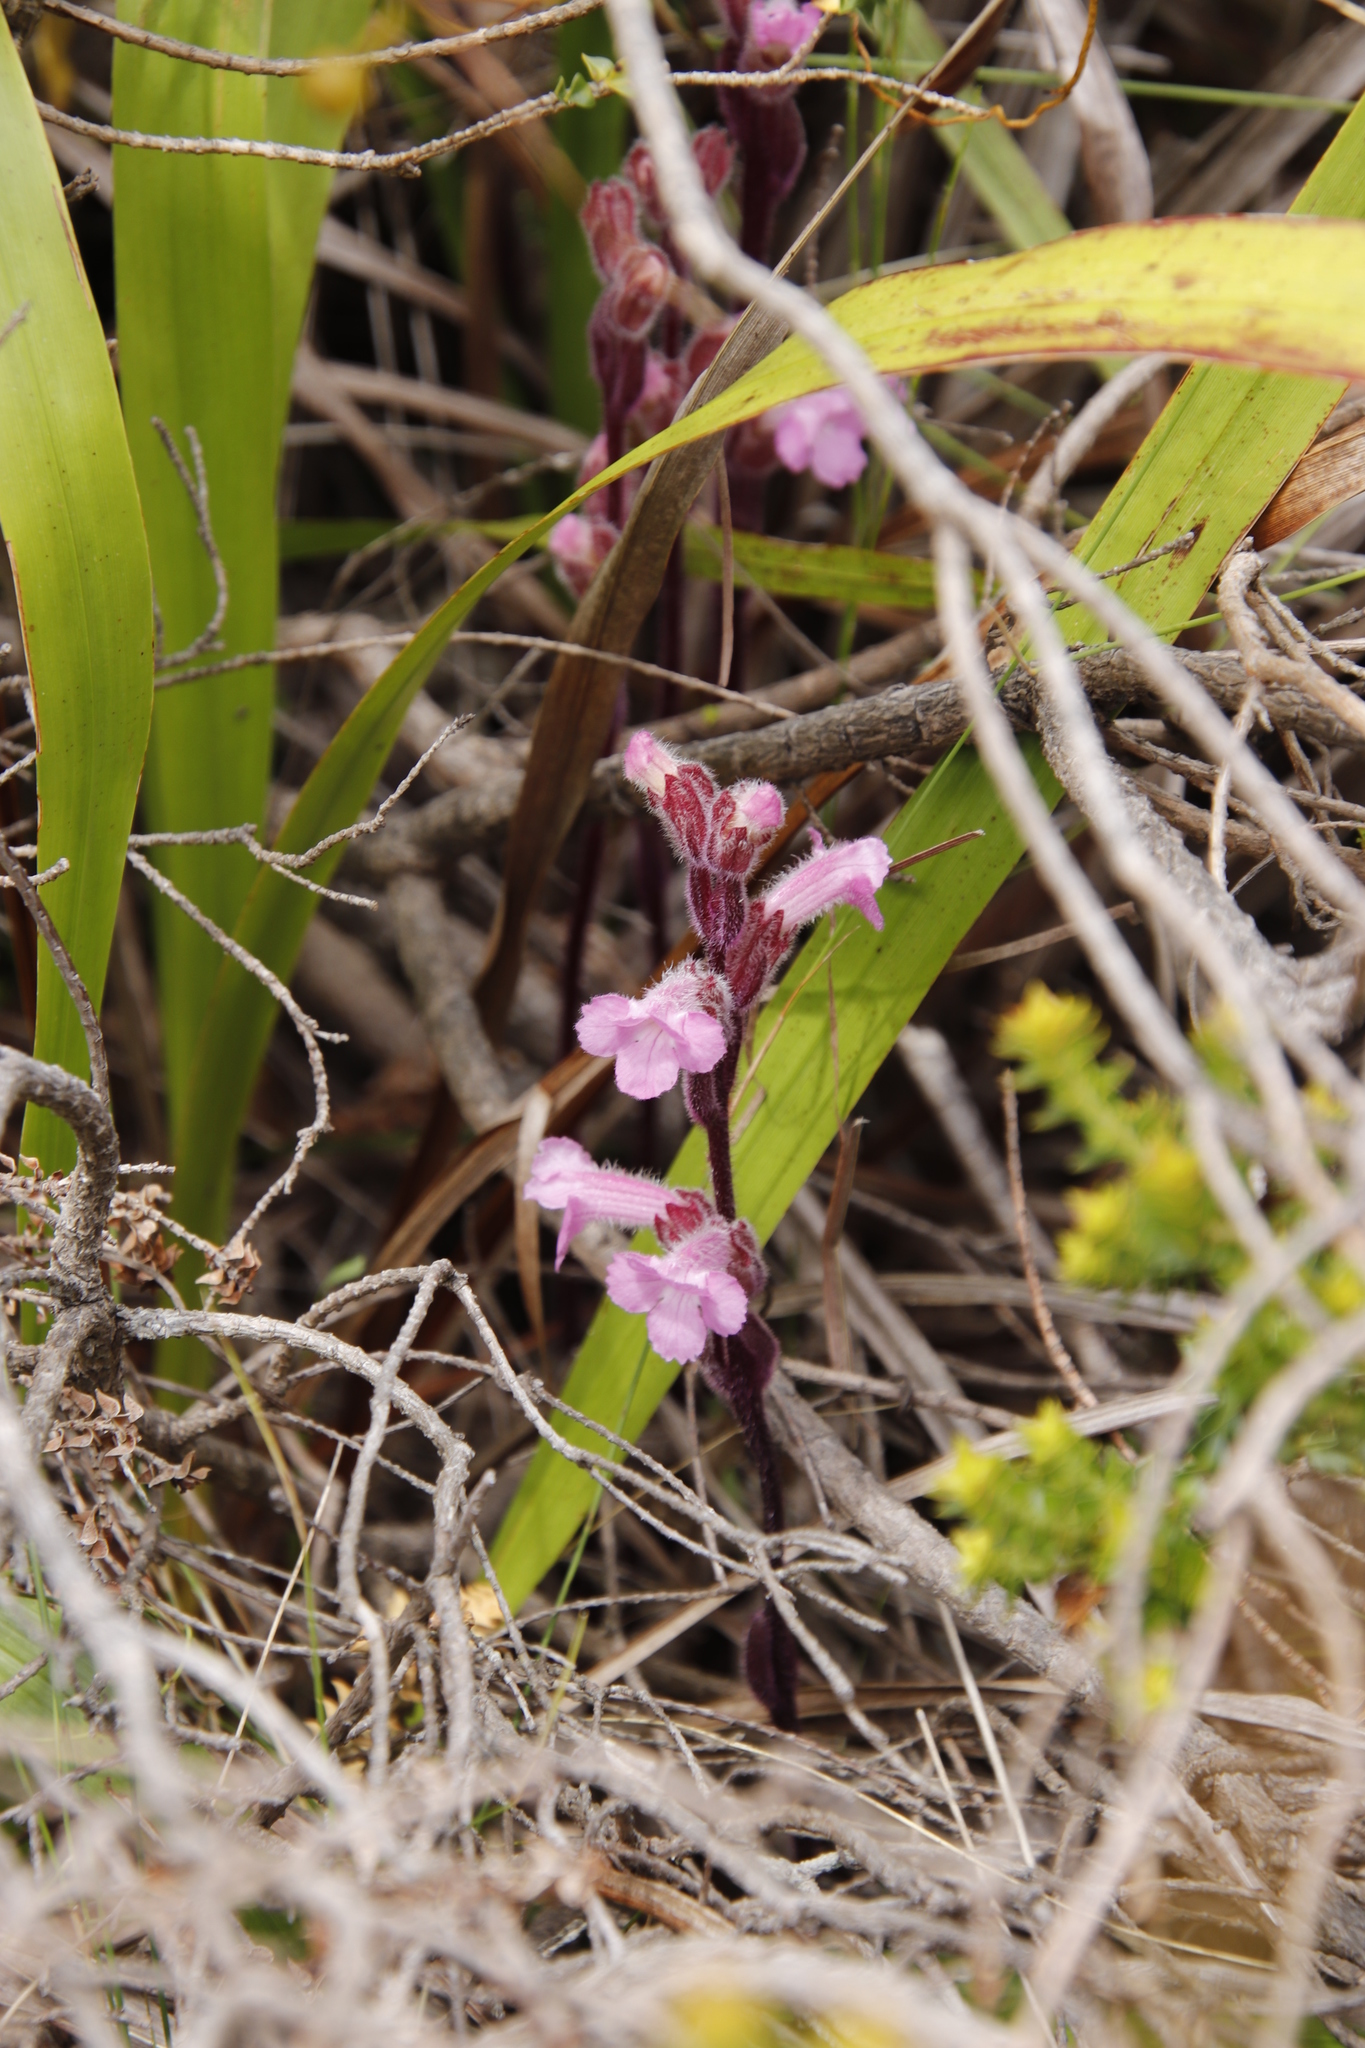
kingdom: Plantae
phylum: Tracheophyta
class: Magnoliopsida
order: Lamiales
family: Orobanchaceae
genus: Harveya
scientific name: Harveya pauciflora
